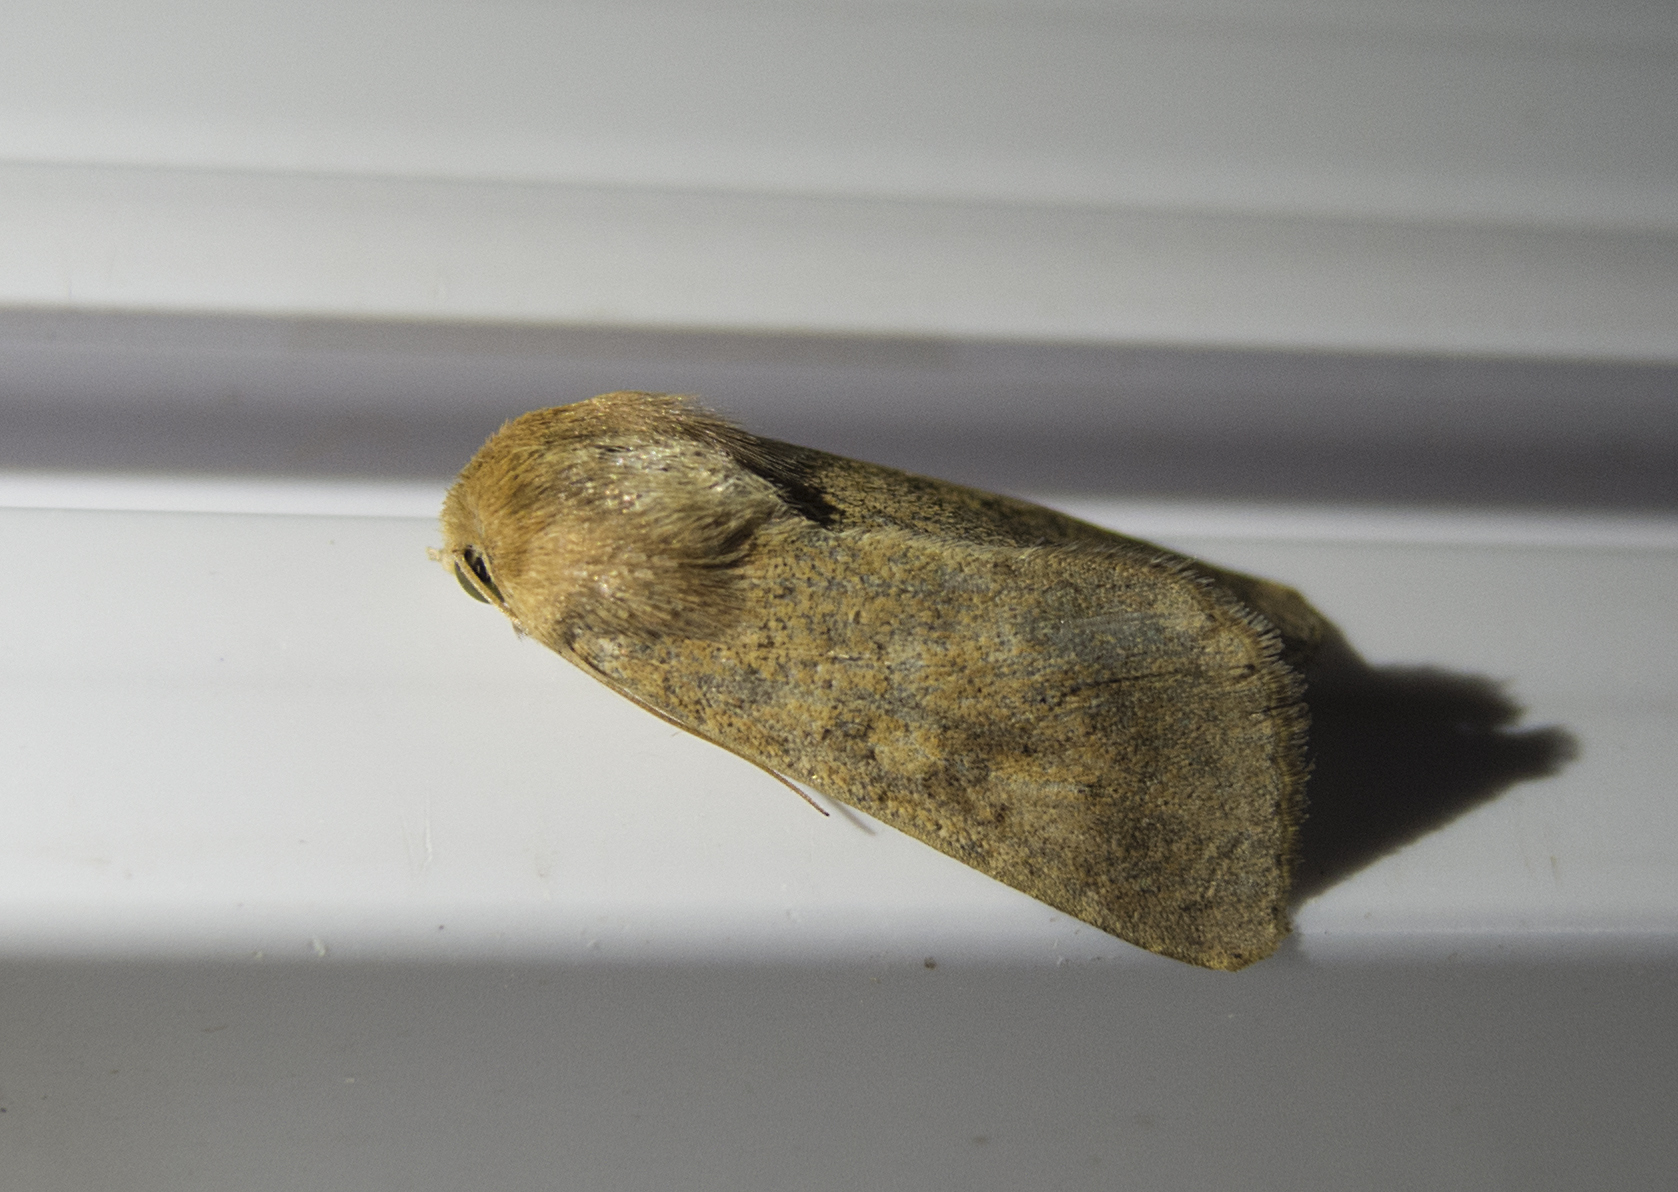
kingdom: Animalia
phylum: Arthropoda
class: Insecta
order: Lepidoptera
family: Noctuidae
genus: Helicoverpa
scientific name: Helicoverpa armigera
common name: Cotton bollworm
